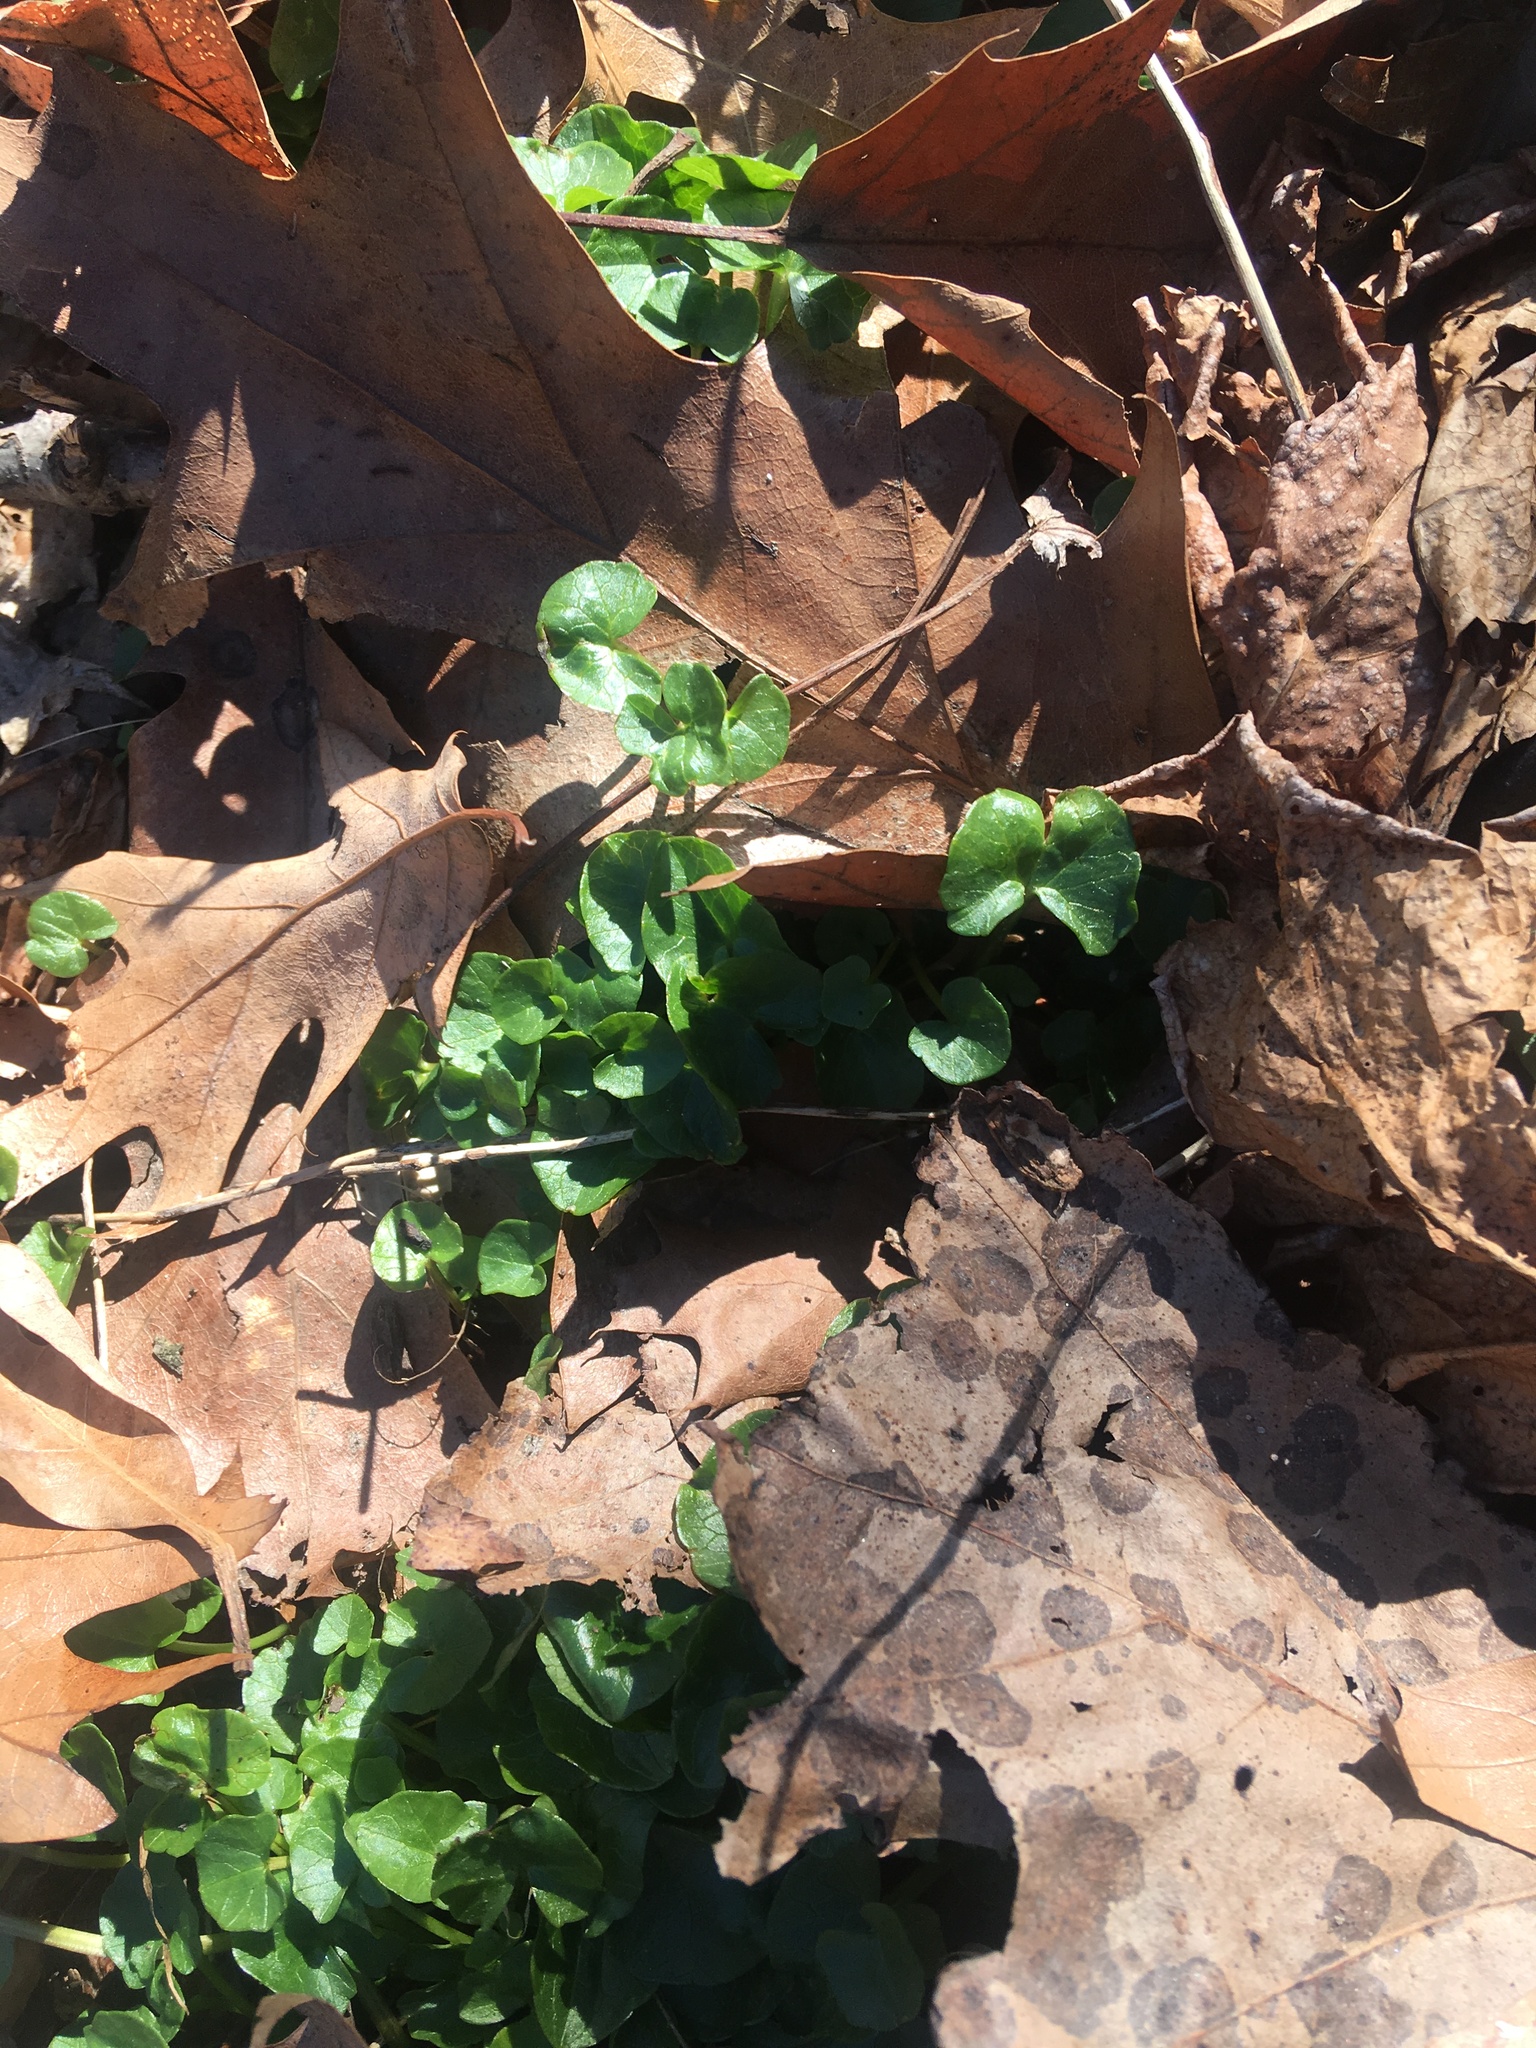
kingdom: Plantae
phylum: Tracheophyta
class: Magnoliopsida
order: Ranunculales
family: Ranunculaceae
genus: Ficaria
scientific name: Ficaria verna
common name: Lesser celandine
